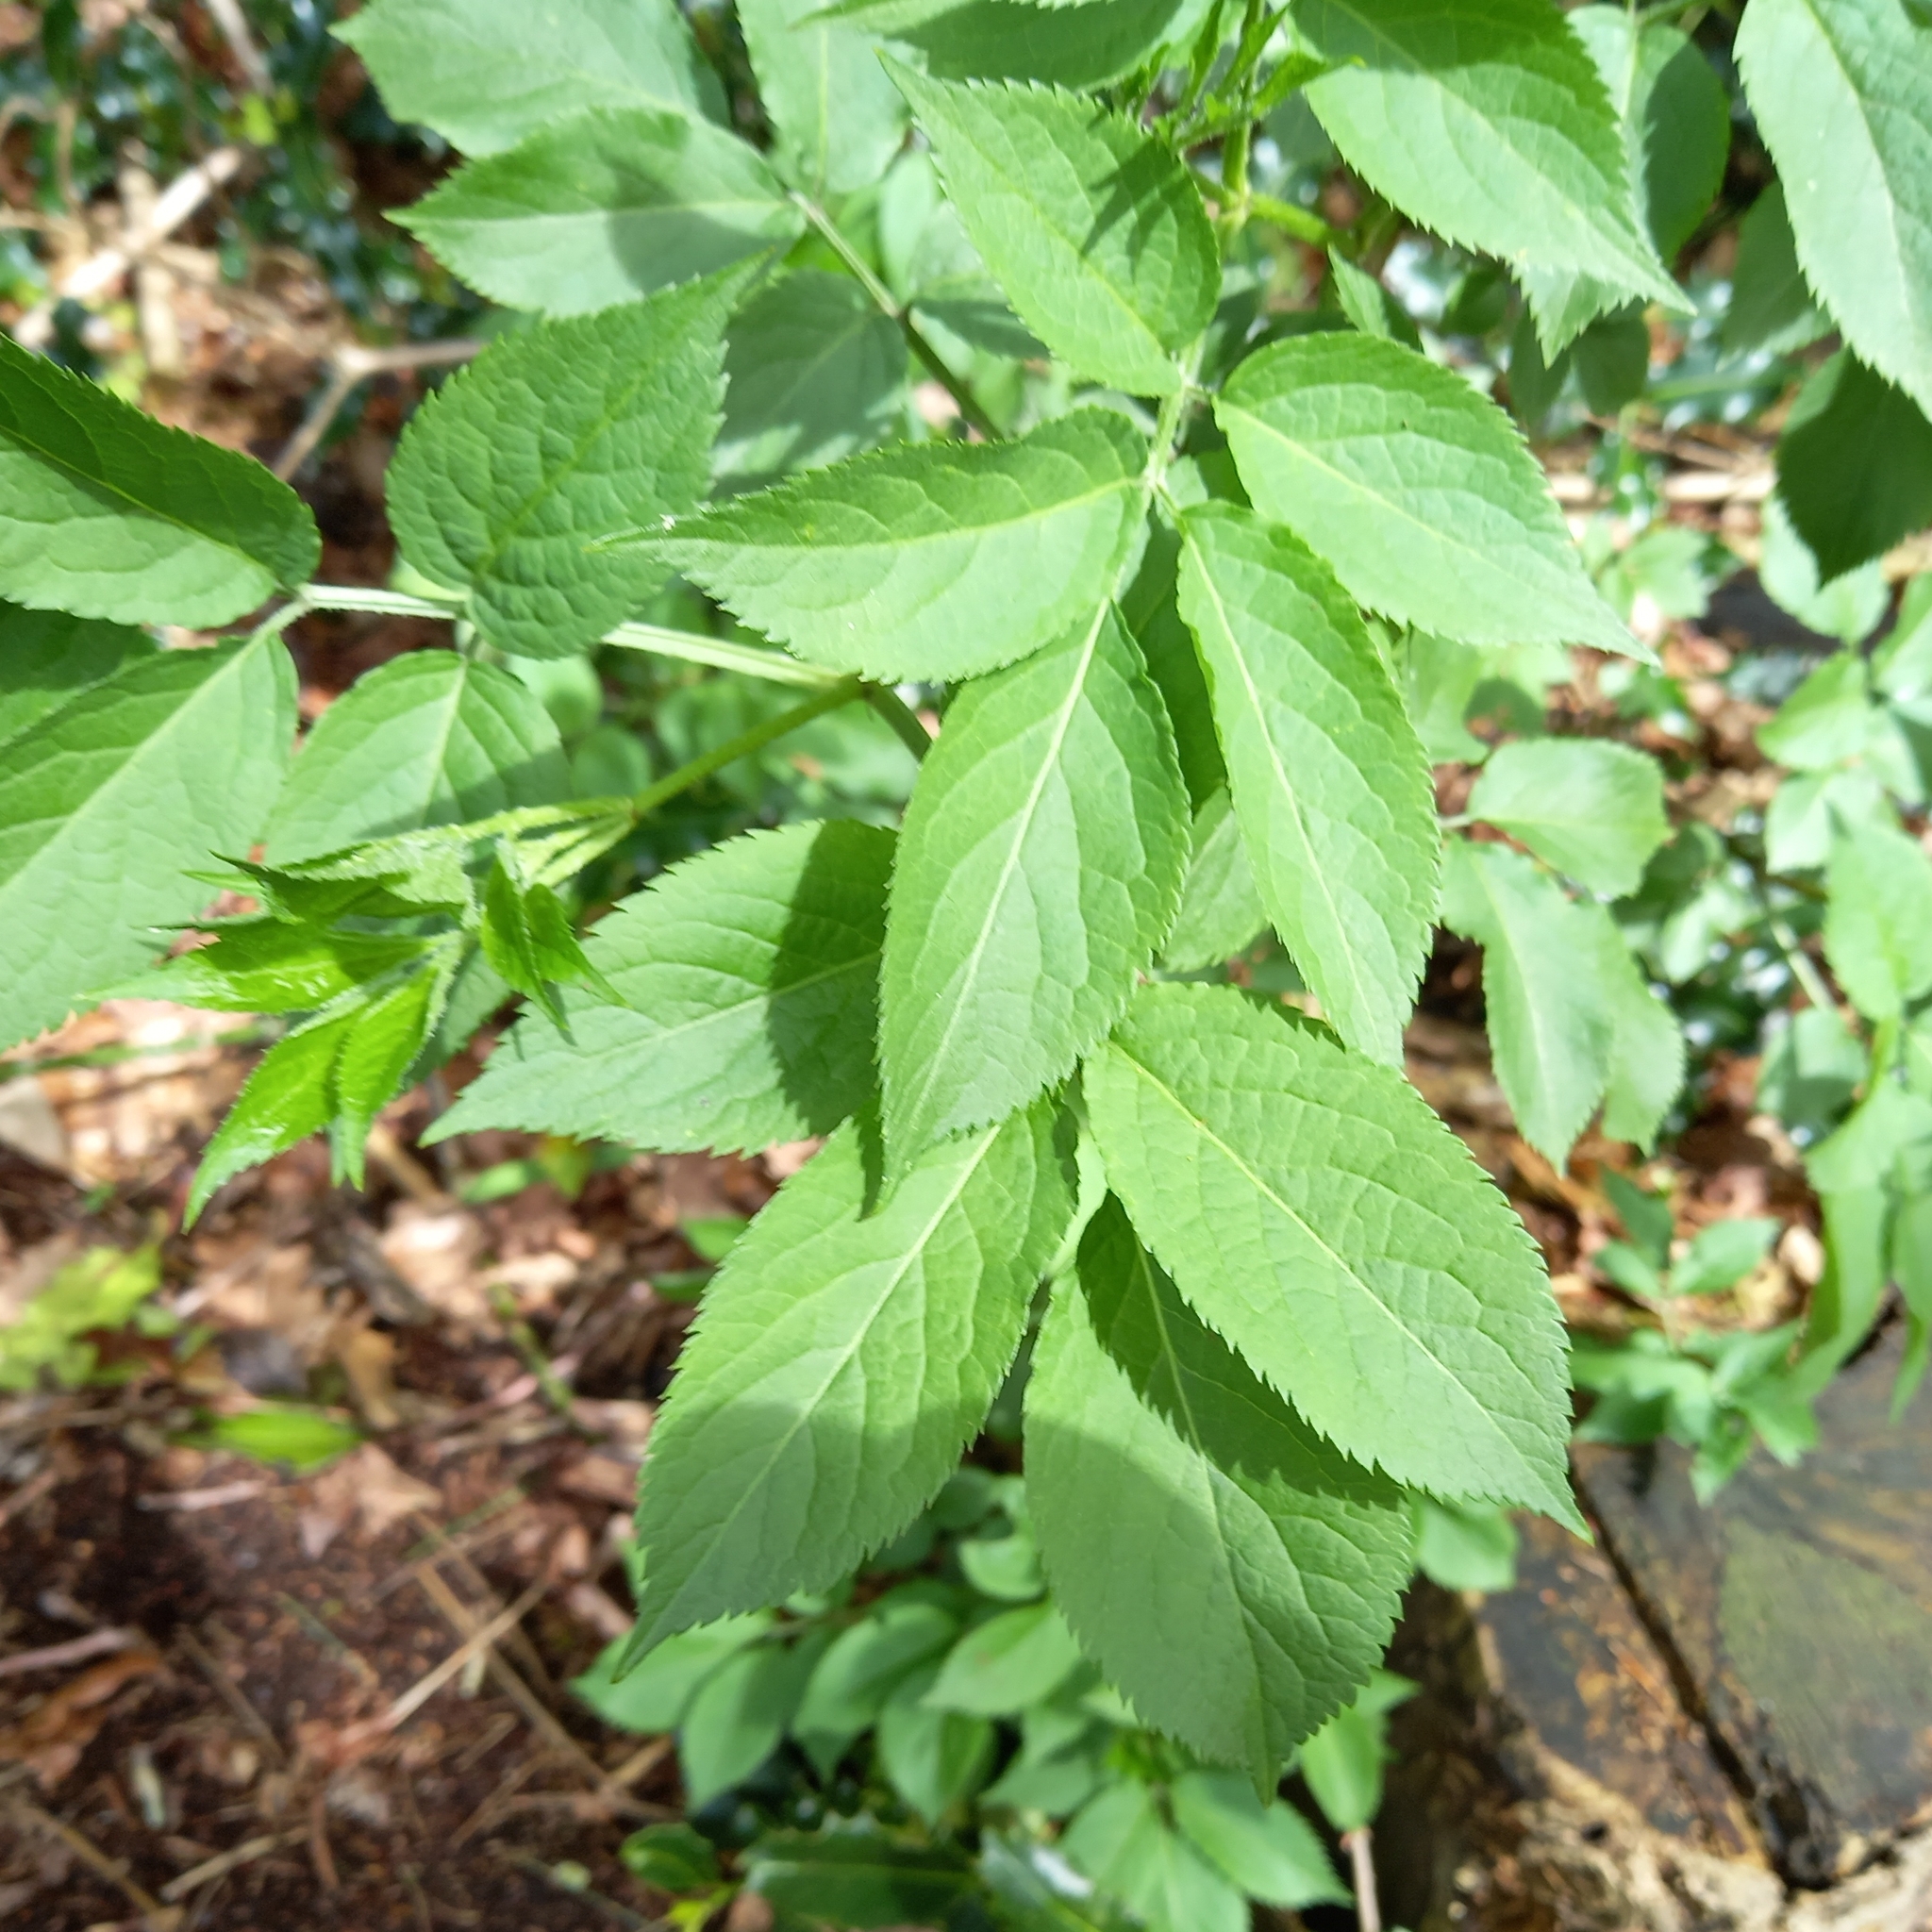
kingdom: Plantae
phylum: Tracheophyta
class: Magnoliopsida
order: Dipsacales
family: Viburnaceae
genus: Sambucus
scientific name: Sambucus nigra
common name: Elder
